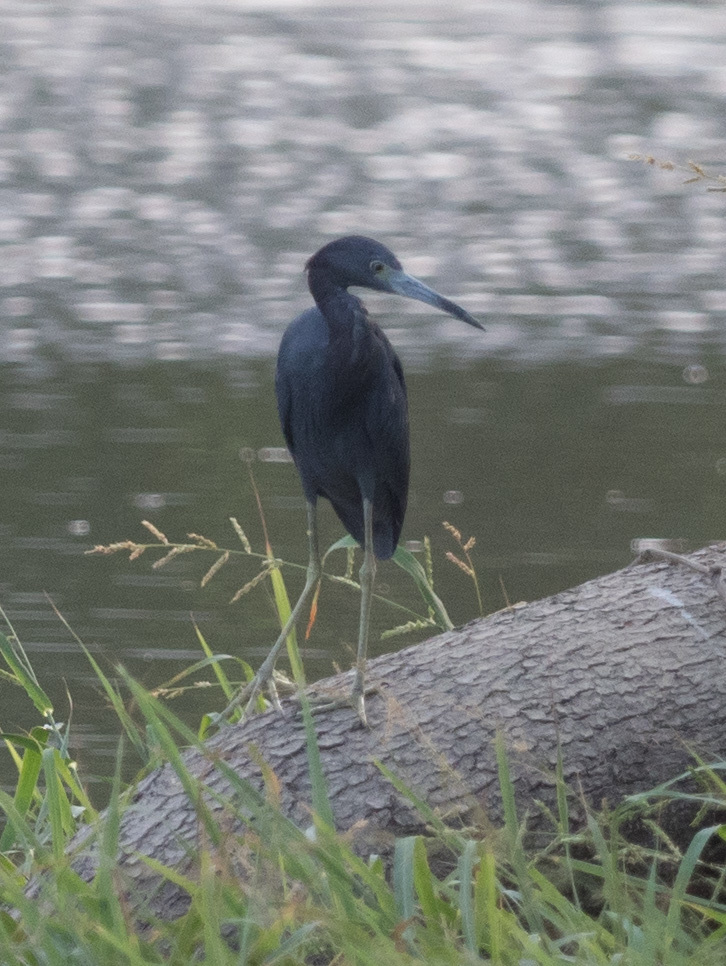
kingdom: Animalia
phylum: Chordata
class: Aves
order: Pelecaniformes
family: Ardeidae
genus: Egretta
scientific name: Egretta caerulea
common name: Little blue heron
